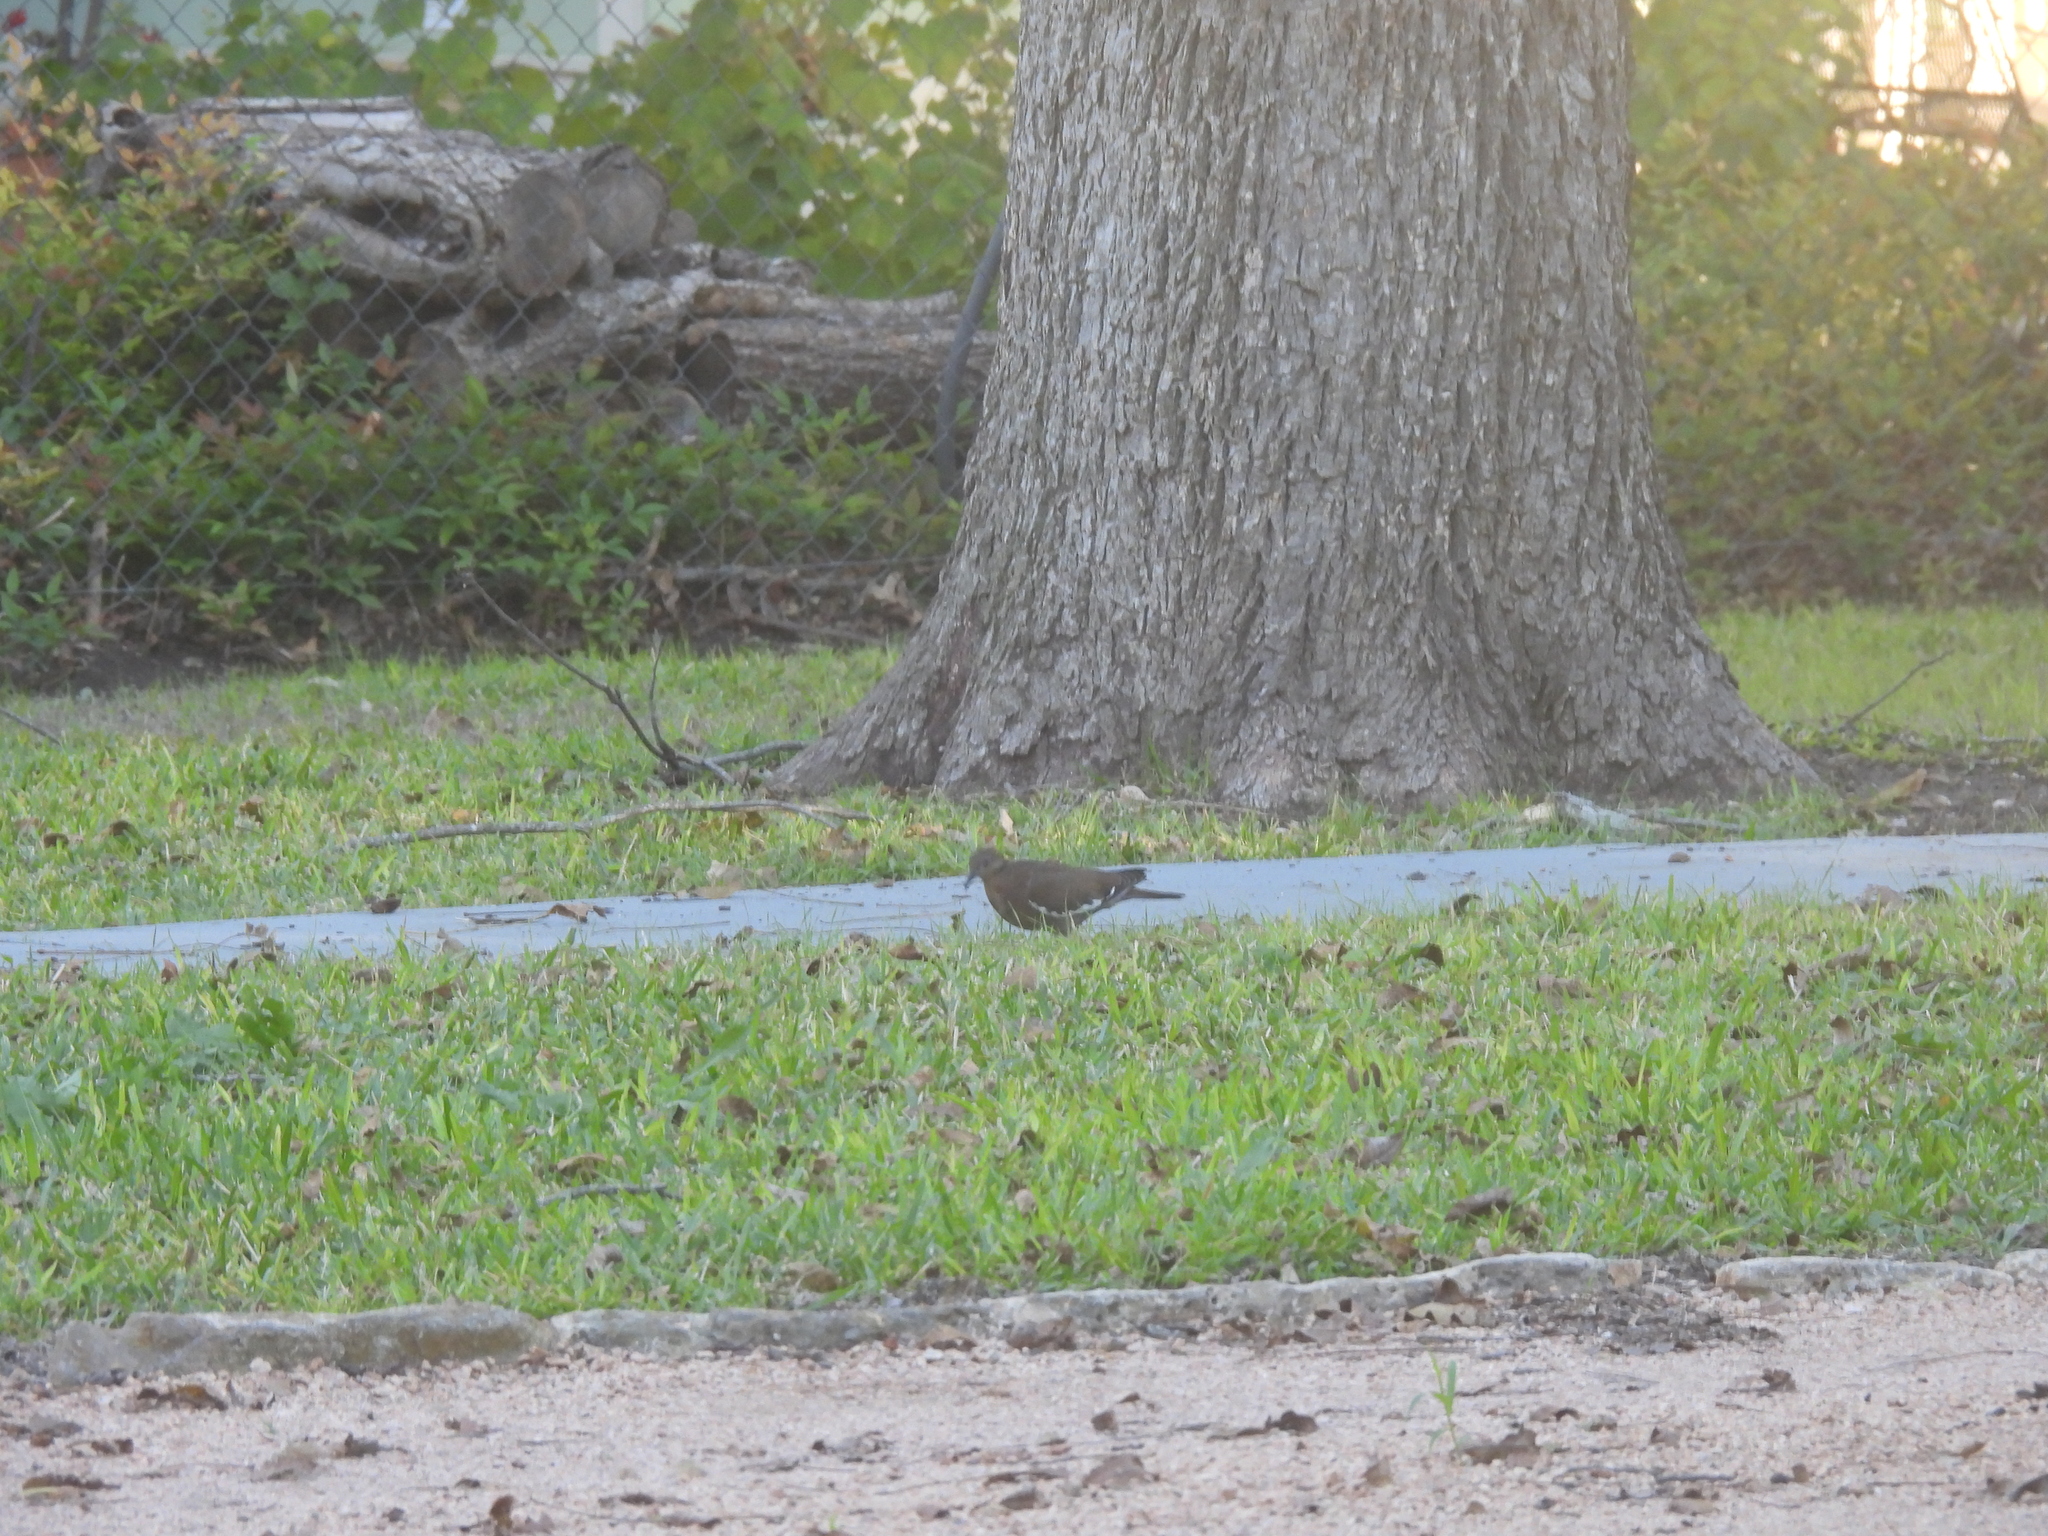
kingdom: Animalia
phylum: Chordata
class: Aves
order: Columbiformes
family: Columbidae
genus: Zenaida
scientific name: Zenaida asiatica
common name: White-winged dove
